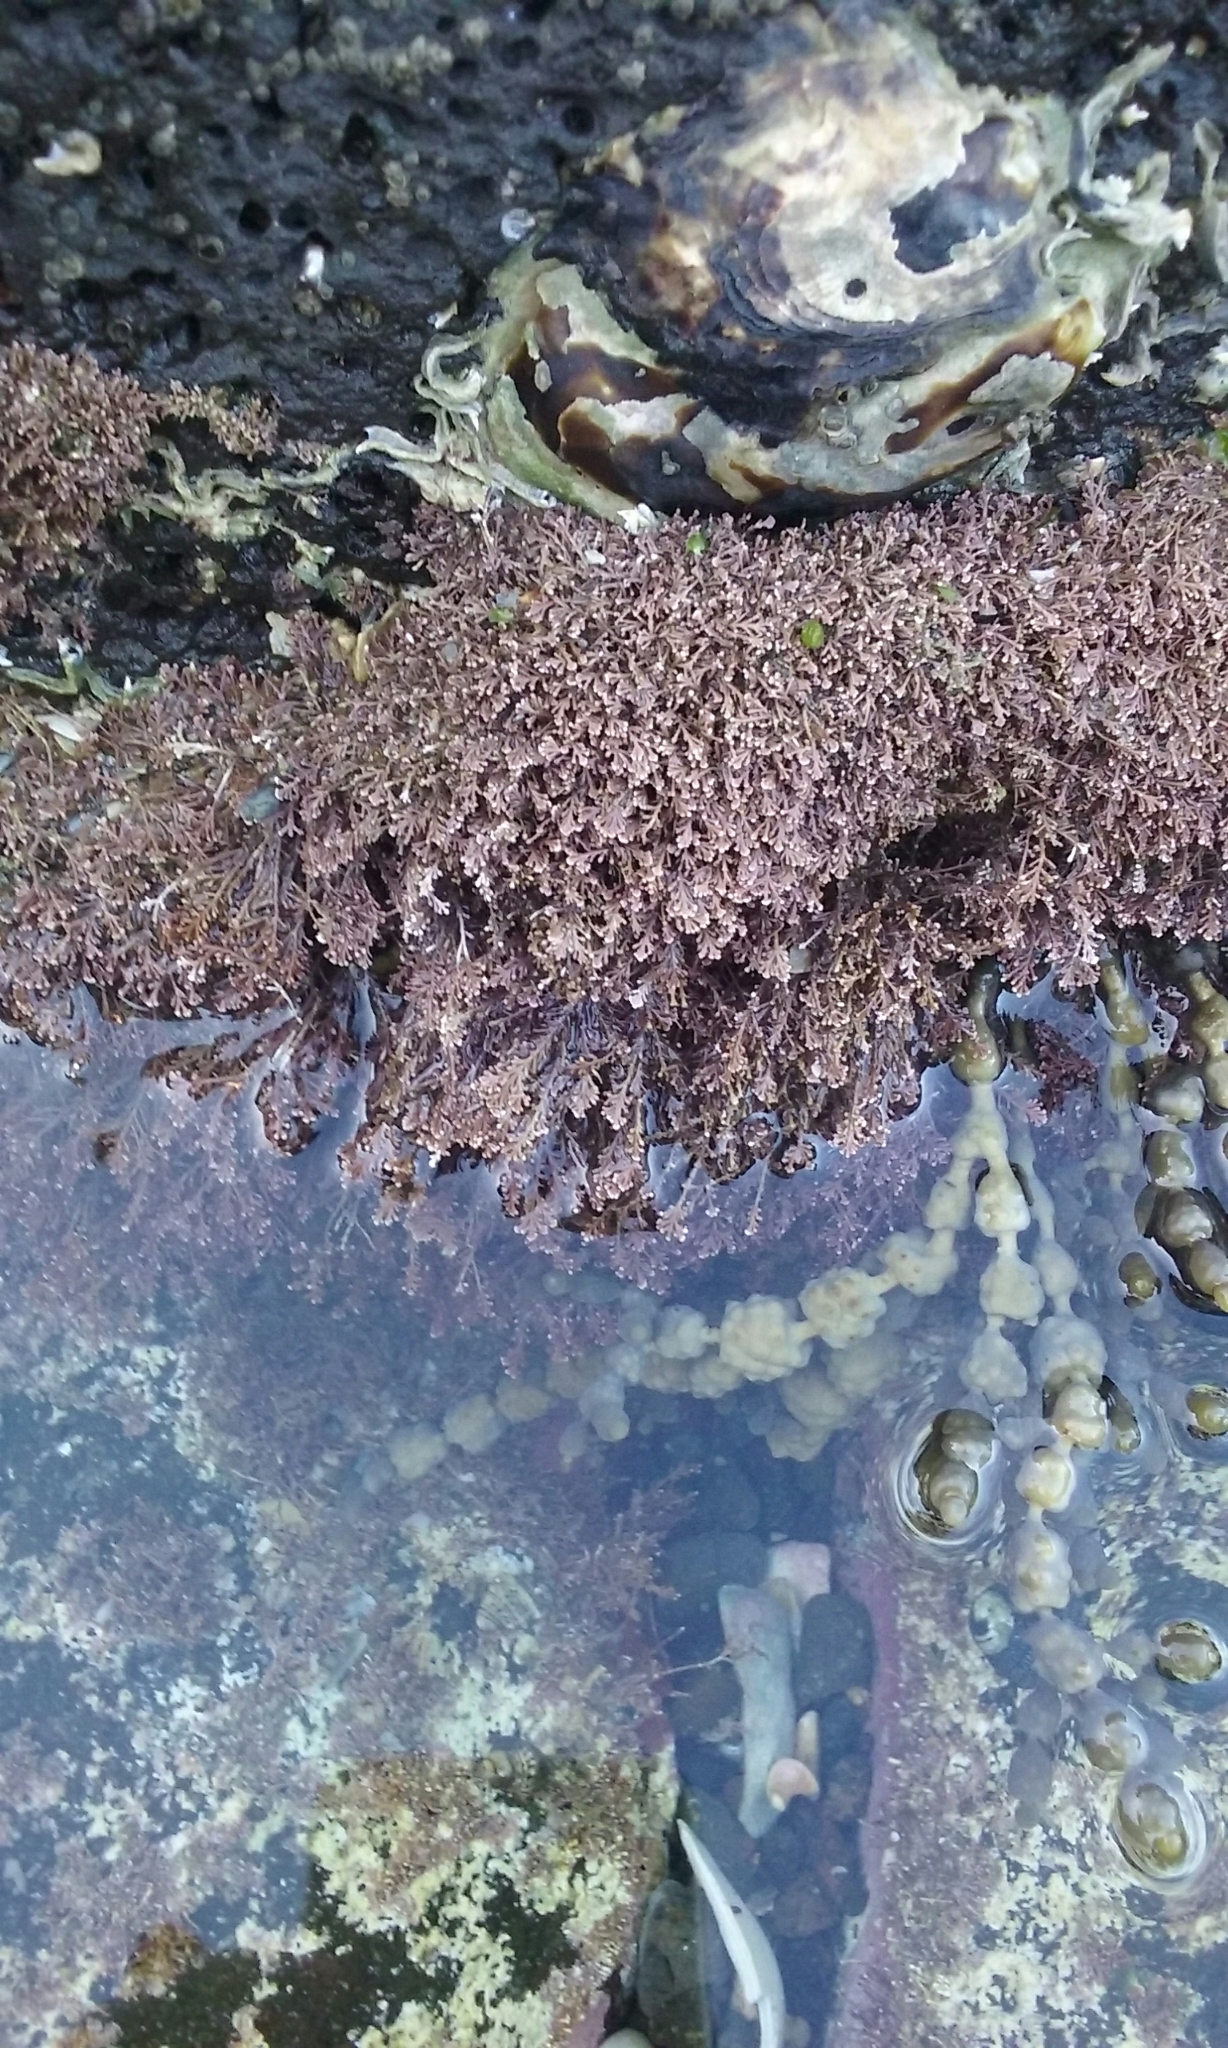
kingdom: Plantae
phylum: Rhodophyta
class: Florideophyceae
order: Corallinales
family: Corallinaceae
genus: Corallina
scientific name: Corallina officinalis
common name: Coral weed
